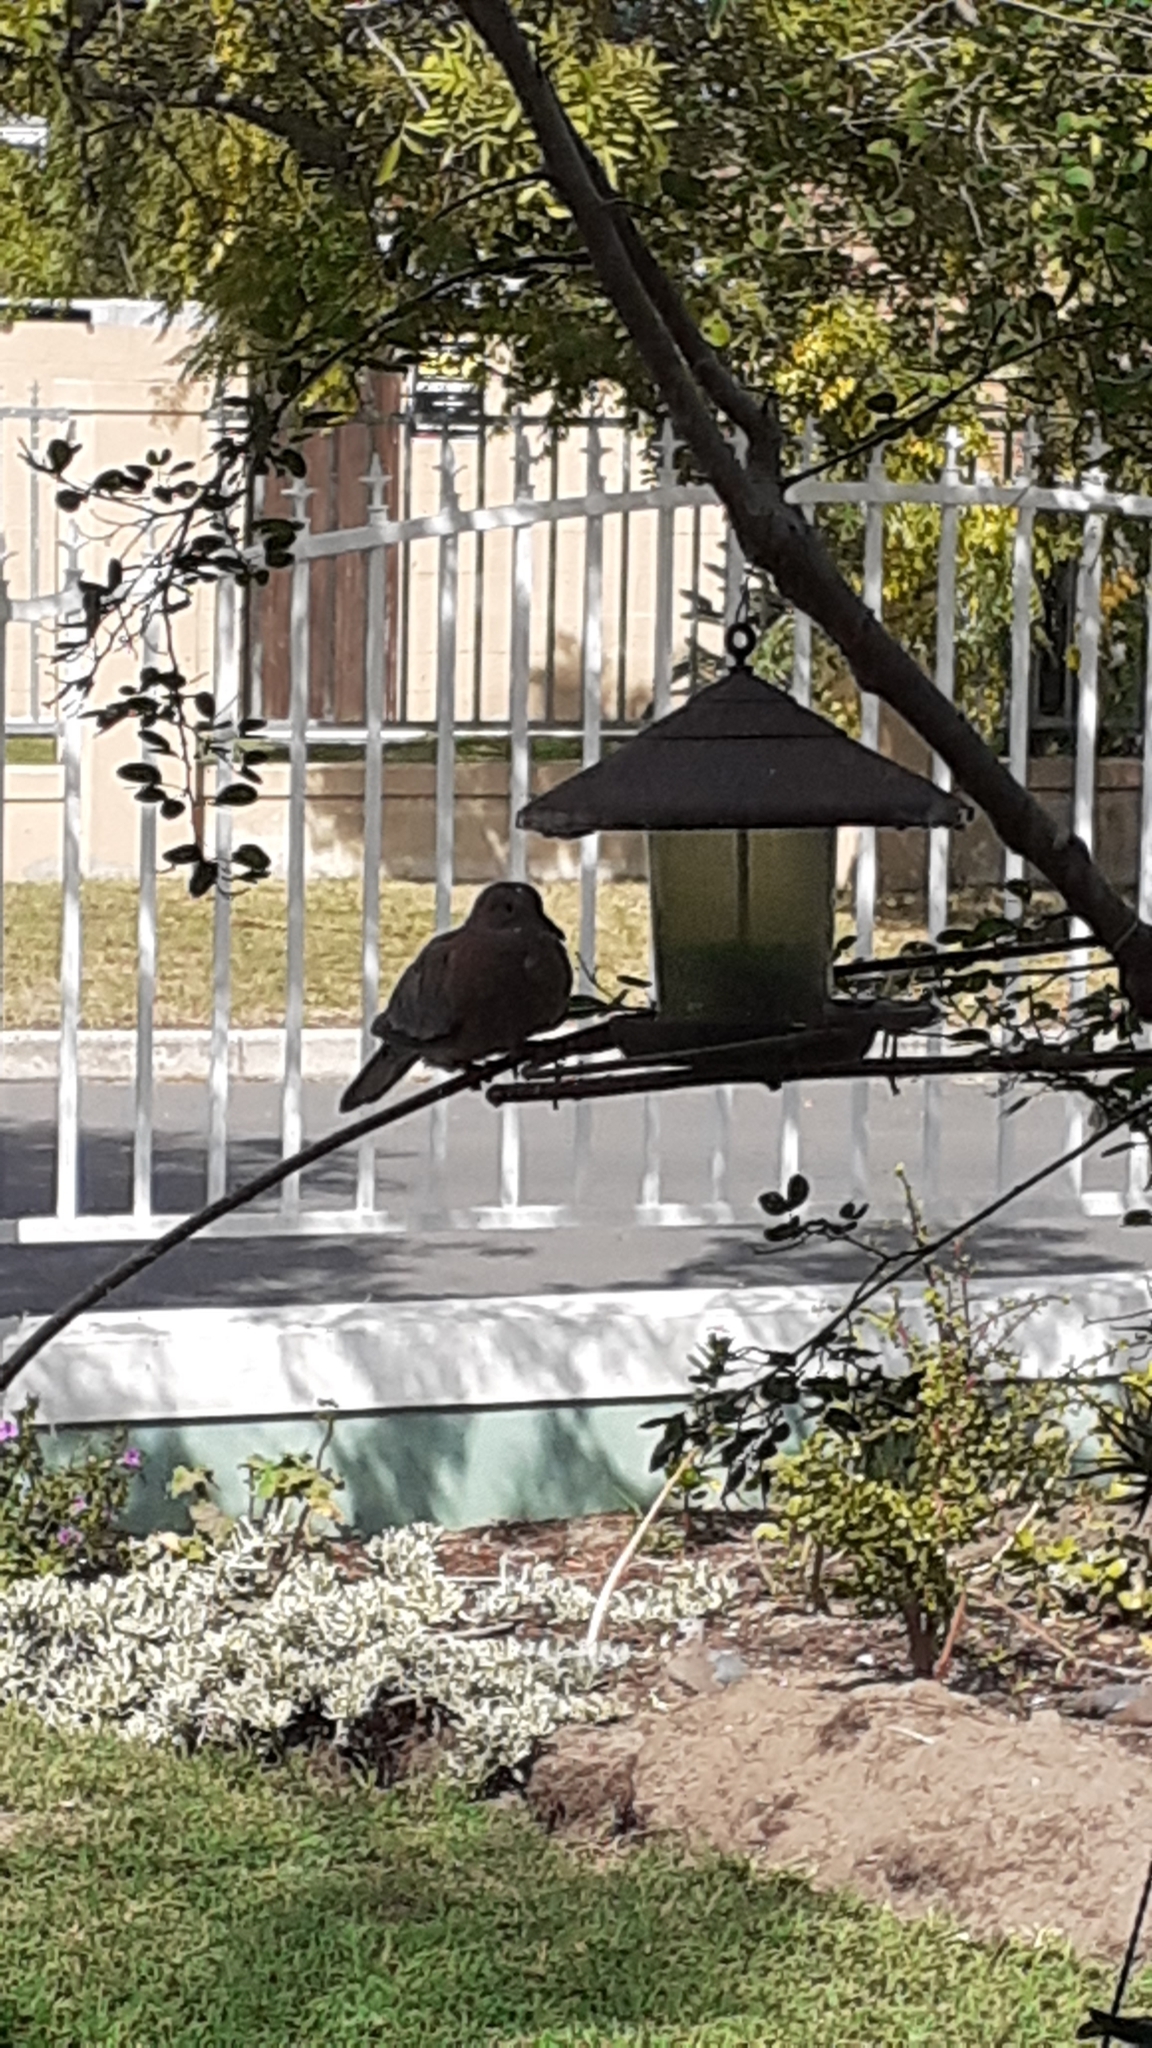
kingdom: Animalia
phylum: Chordata
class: Aves
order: Columbiformes
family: Columbidae
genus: Streptopelia
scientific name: Streptopelia semitorquata
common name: Red-eyed dove
